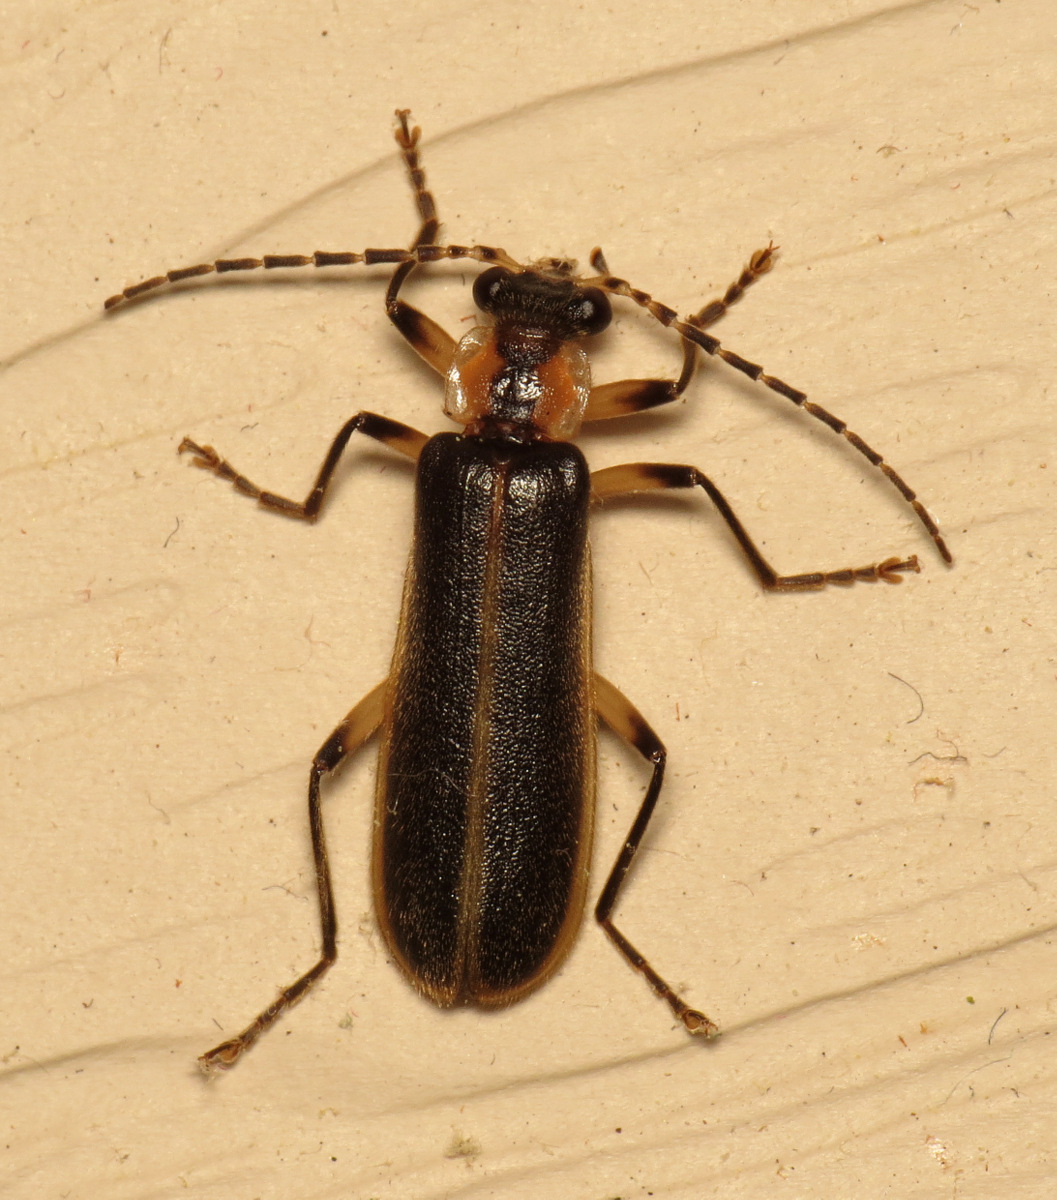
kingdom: Animalia
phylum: Arthropoda
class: Insecta
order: Coleoptera
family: Cantharidae
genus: Podabrus
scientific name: Podabrus basilaris
